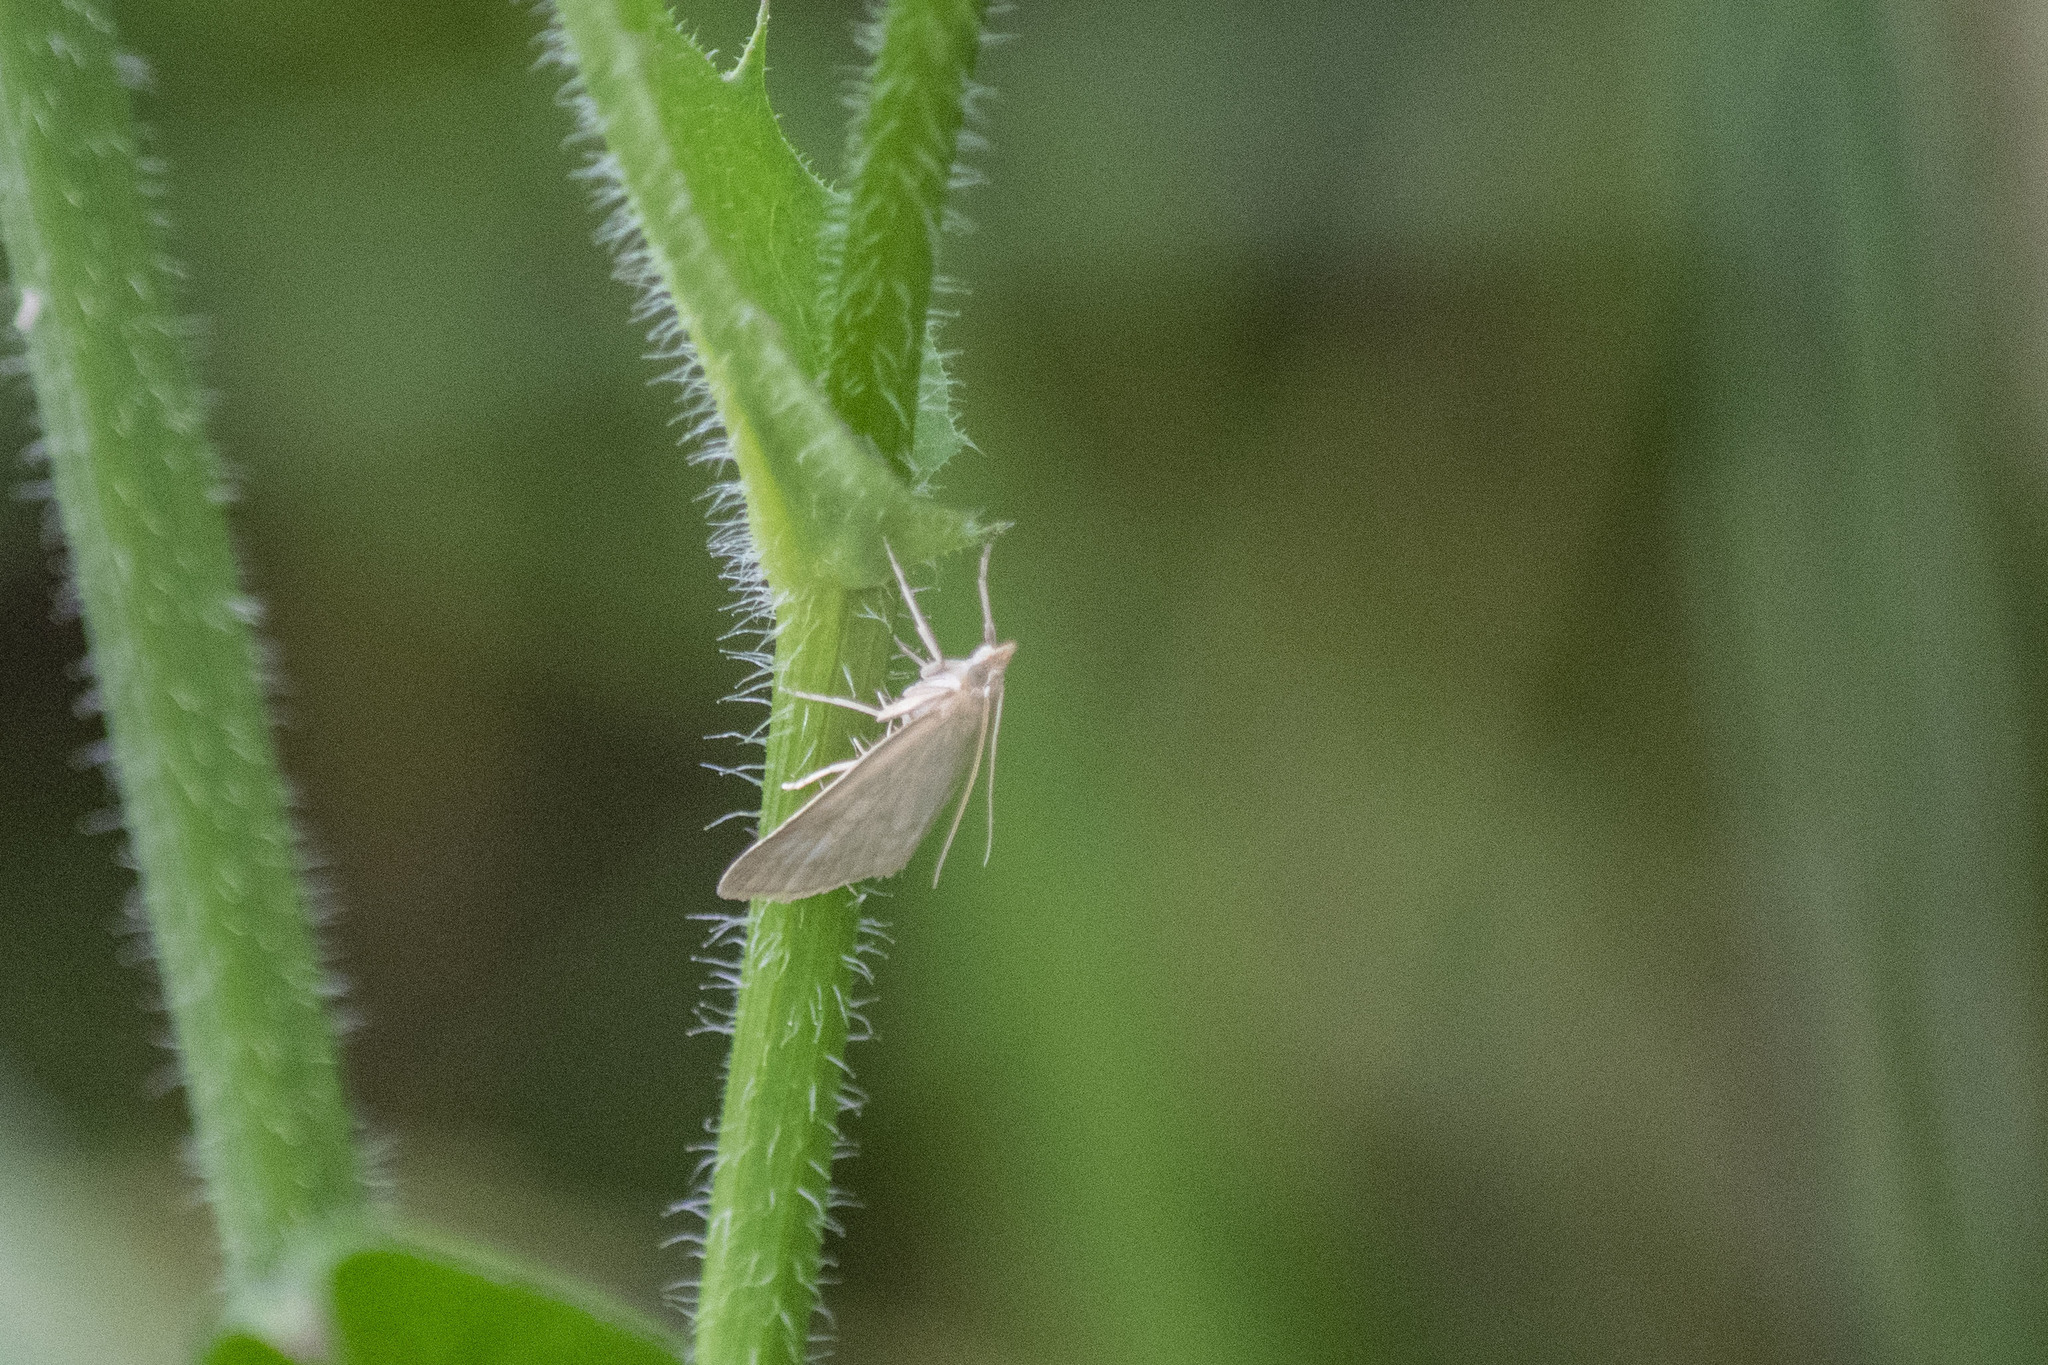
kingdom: Animalia
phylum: Arthropoda
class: Insecta
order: Lepidoptera
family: Crambidae
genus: Anania
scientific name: Anania fuscalis
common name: Cinerous pearl
